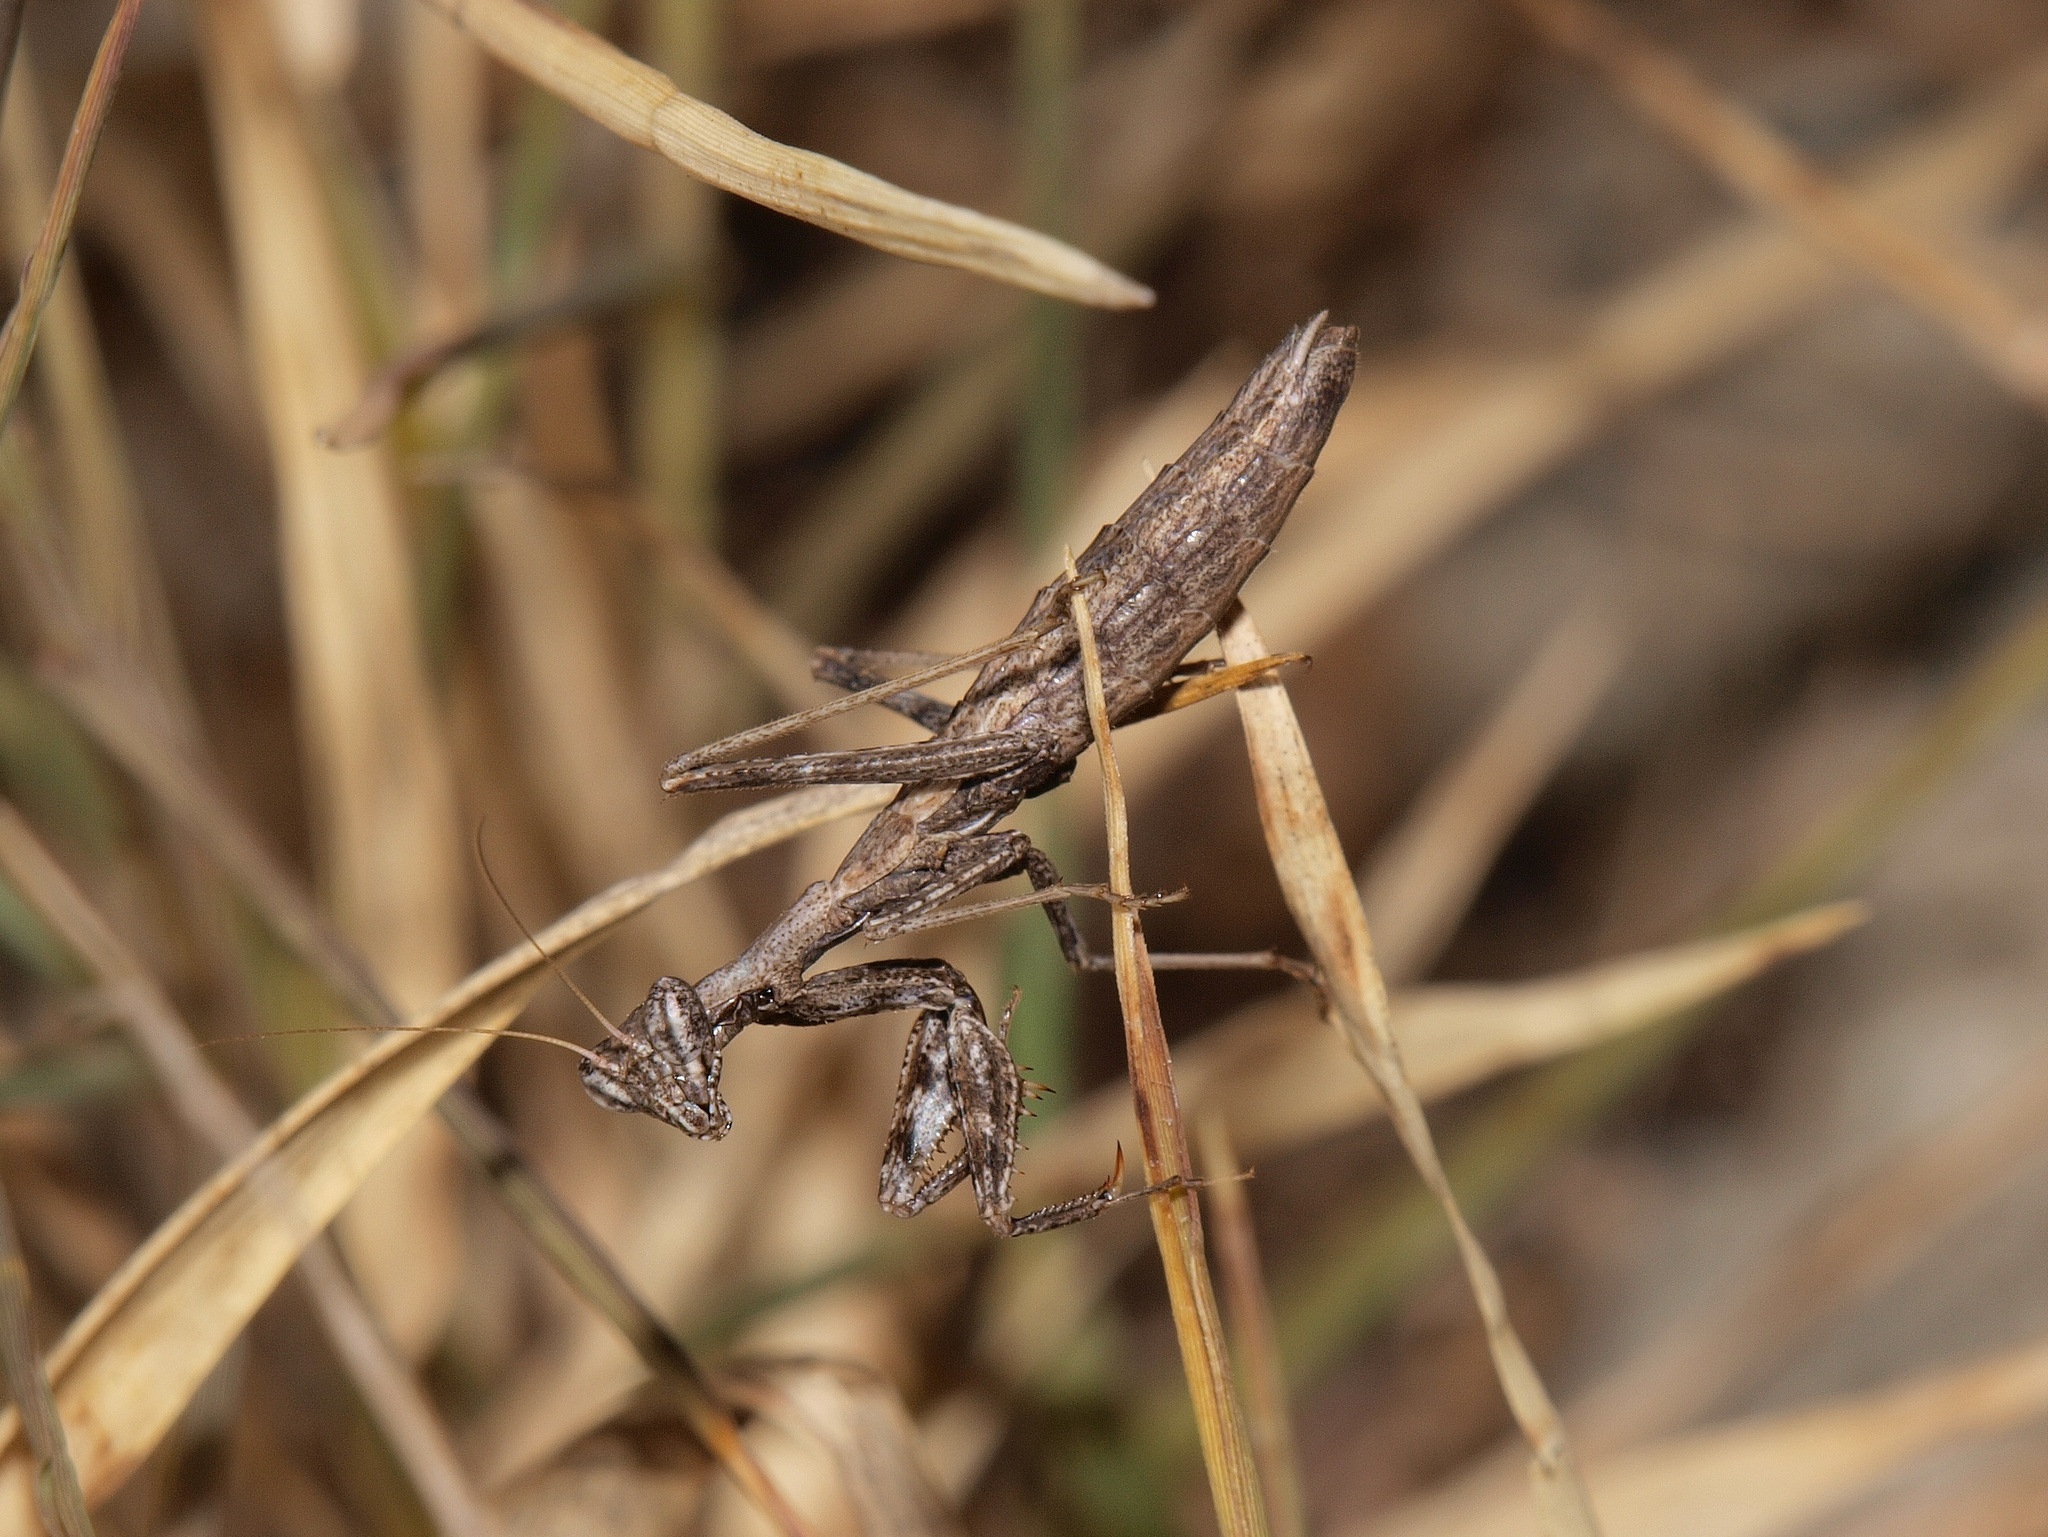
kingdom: Animalia
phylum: Arthropoda
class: Insecta
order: Mantodea
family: Amelidae
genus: Ameles
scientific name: Ameles decolor
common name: Dwarf mantis
